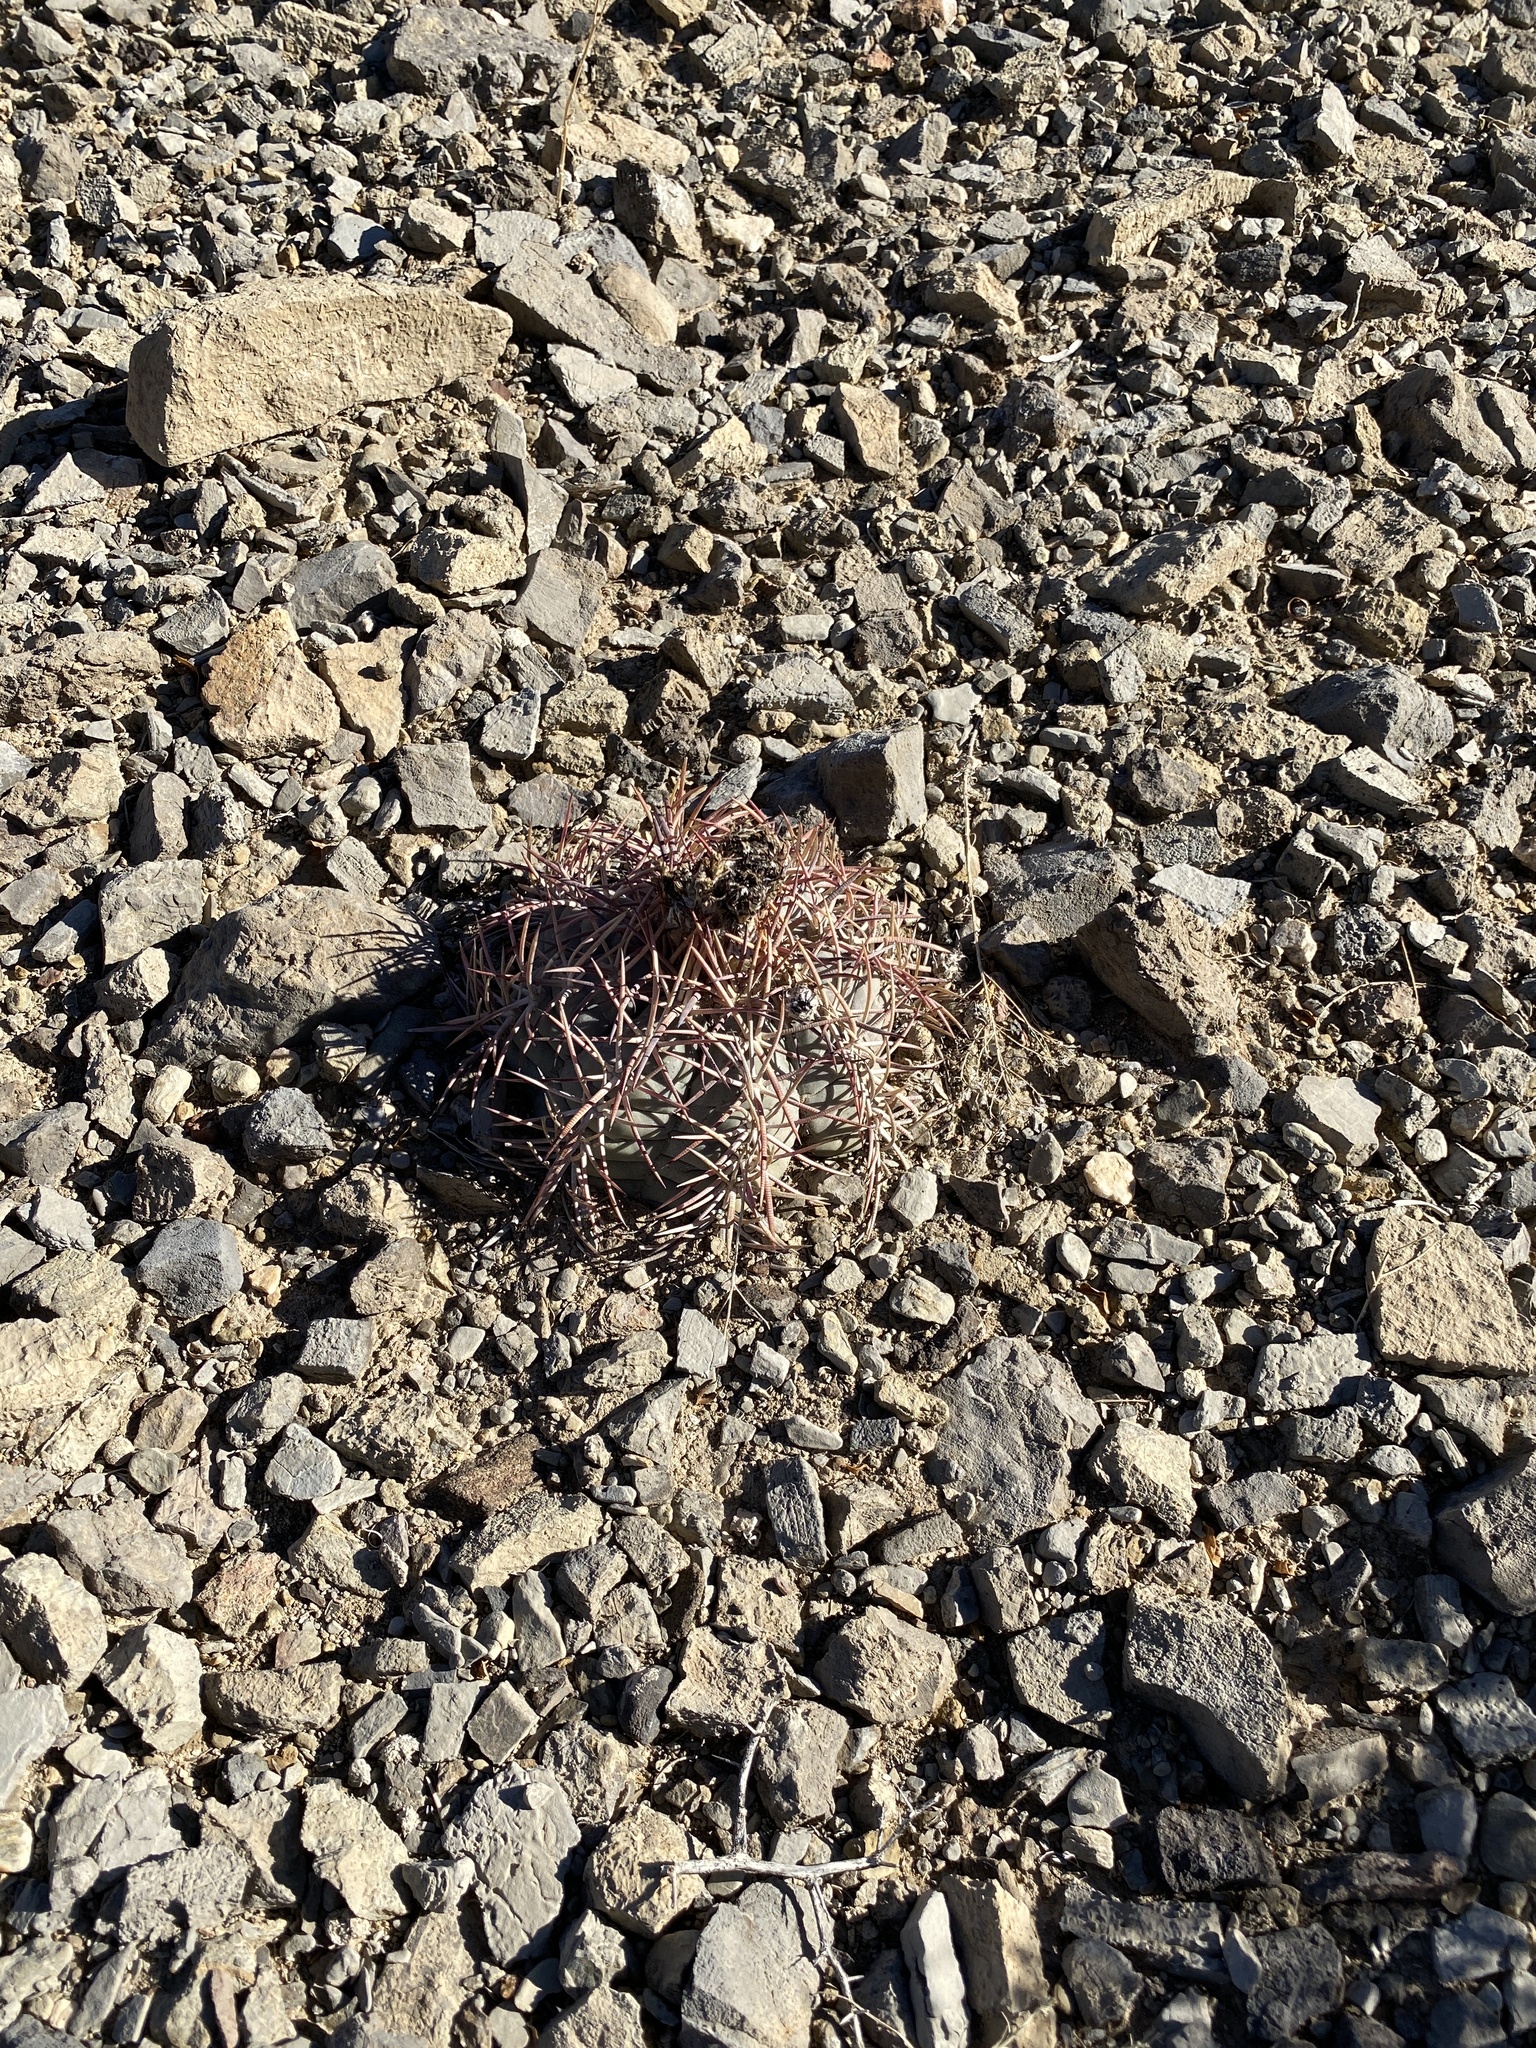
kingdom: Plantae
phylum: Tracheophyta
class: Magnoliopsida
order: Caryophyllales
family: Cactaceae
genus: Echinocactus
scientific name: Echinocactus horizonthalonius
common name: Devilshead
